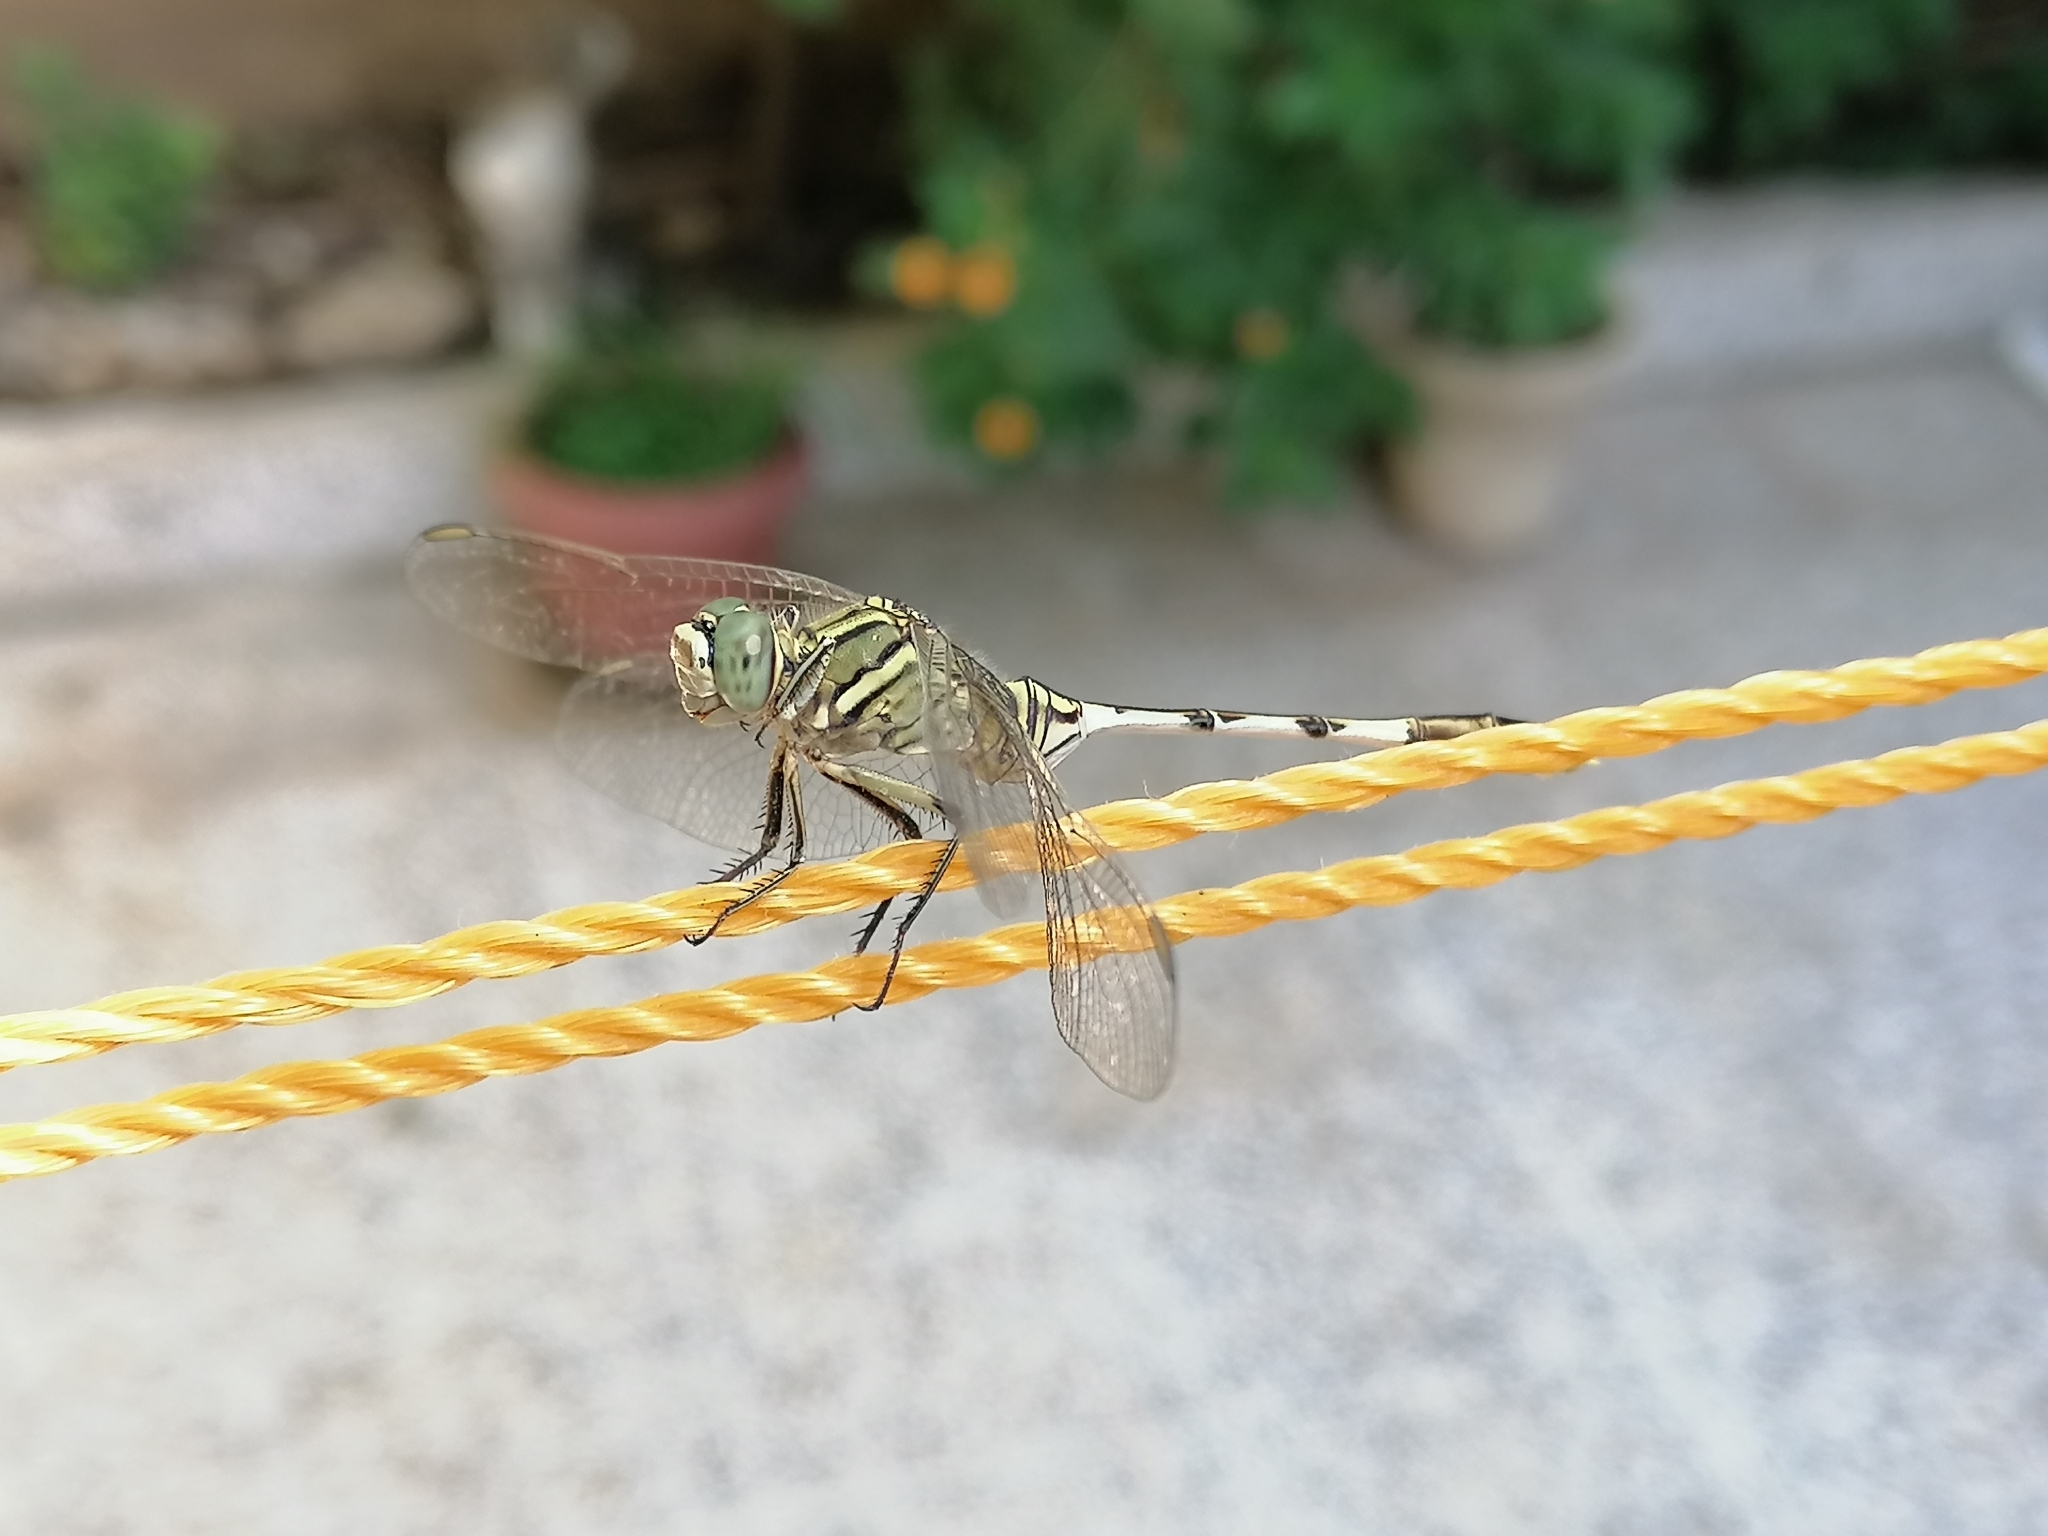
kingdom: Animalia
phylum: Arthropoda
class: Insecta
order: Odonata
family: Libellulidae
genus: Orthetrum
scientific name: Orthetrum sabina
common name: Slender skimmer
